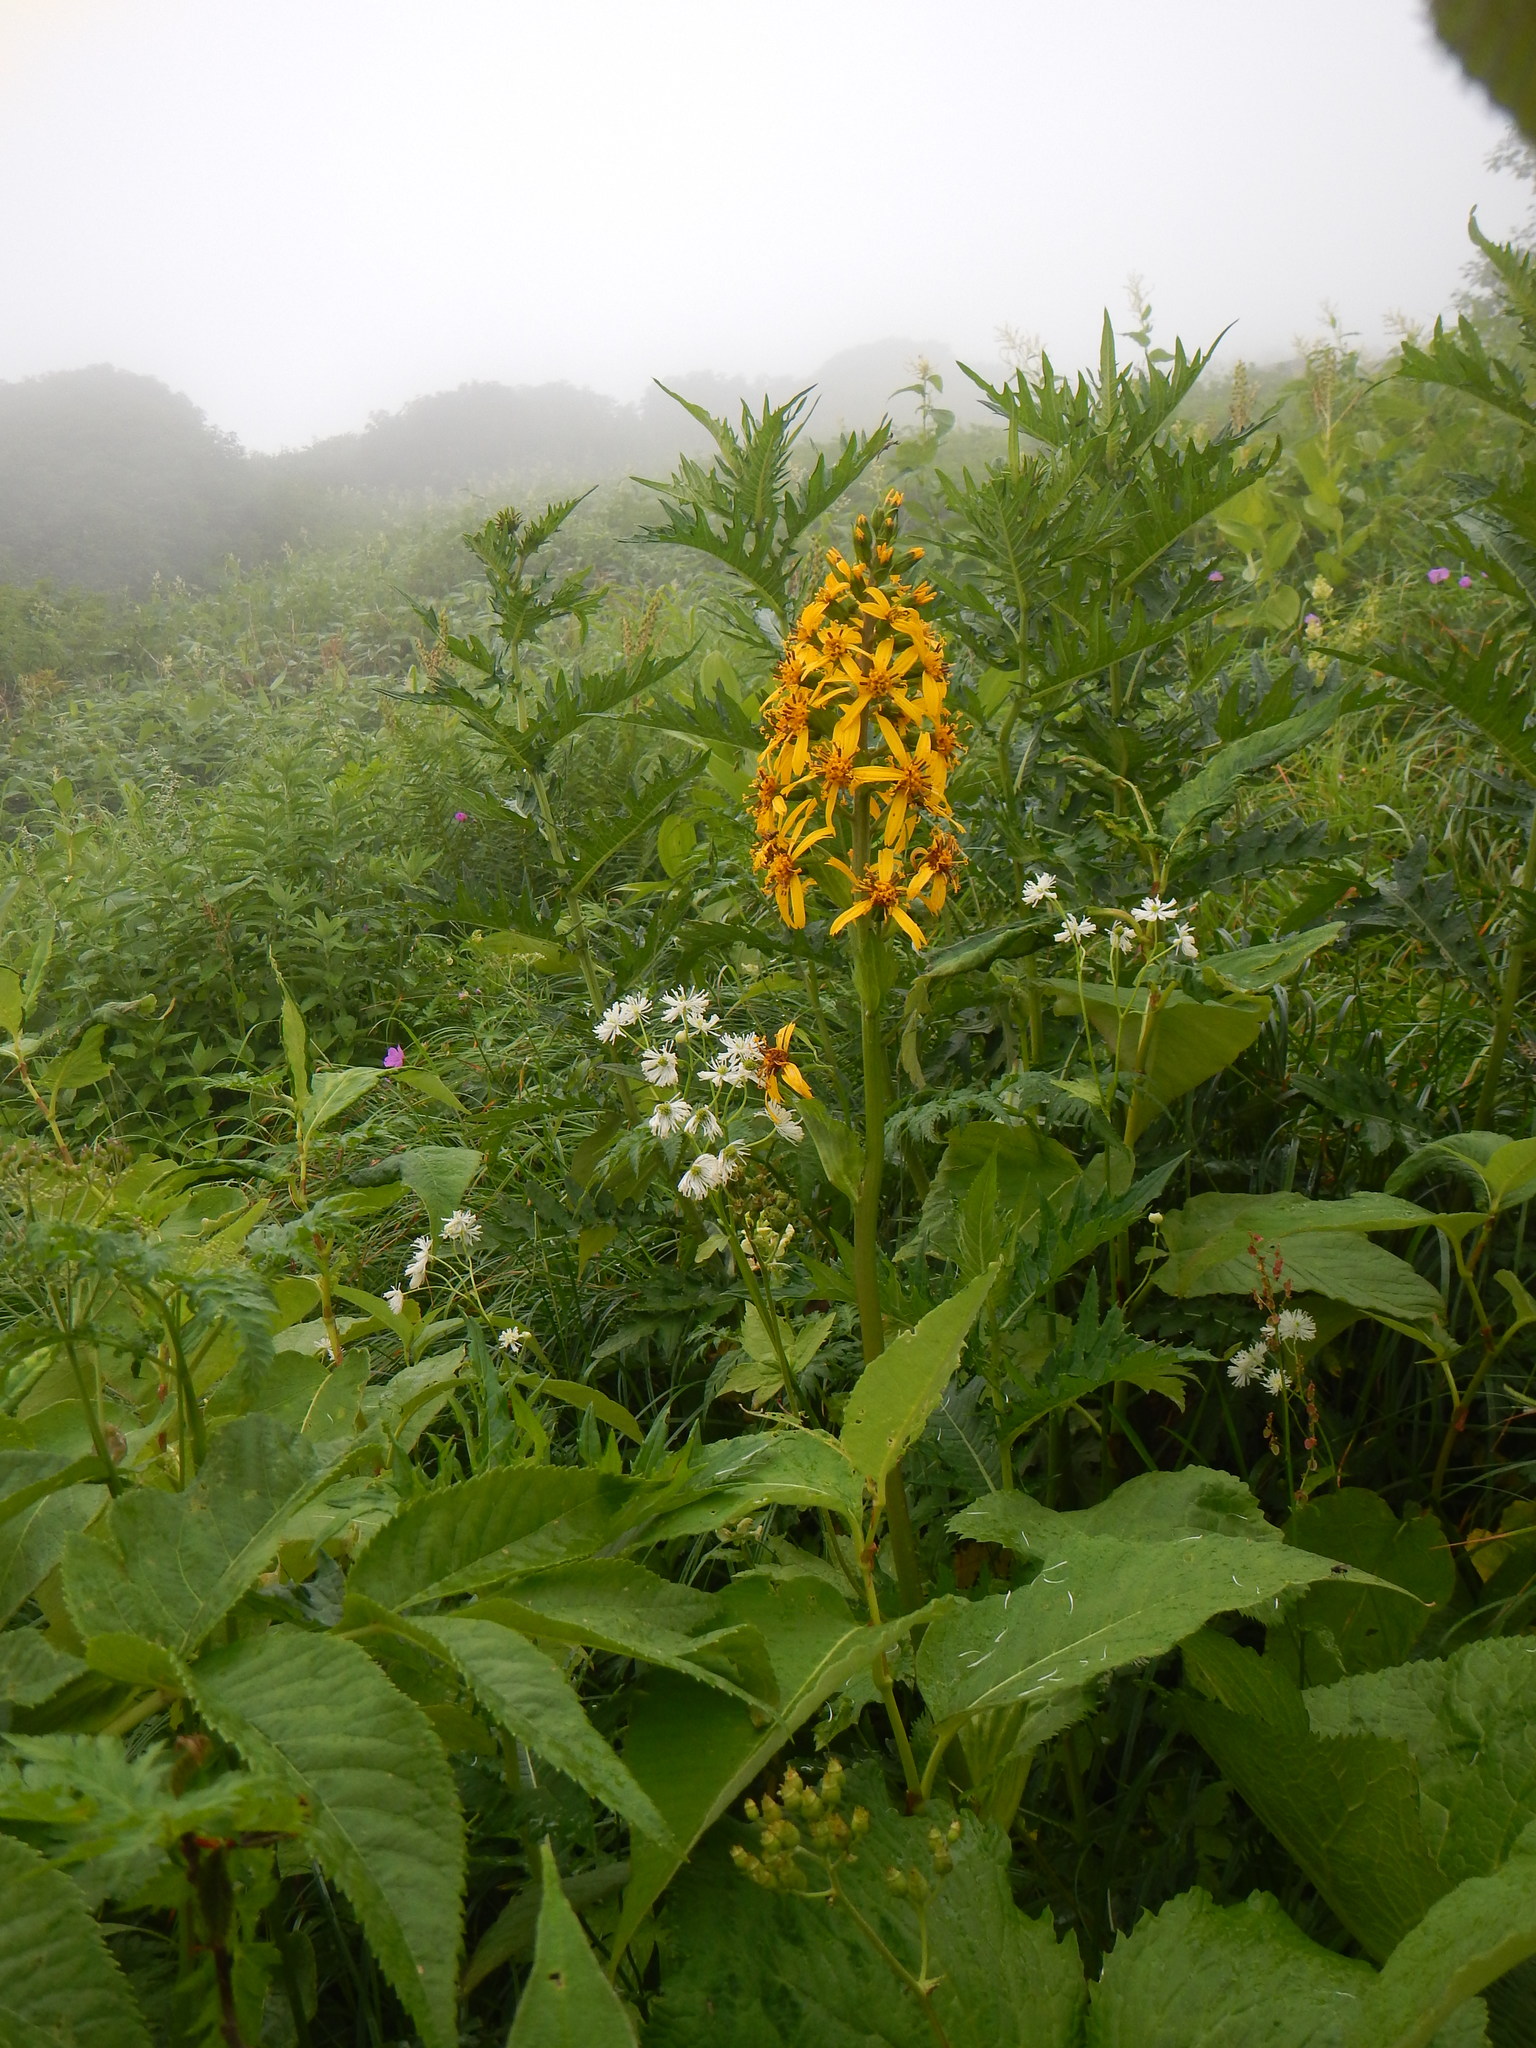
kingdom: Plantae
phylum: Tracheophyta
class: Magnoliopsida
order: Asterales
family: Asteraceae
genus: Ligularia
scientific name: Ligularia fischeri
